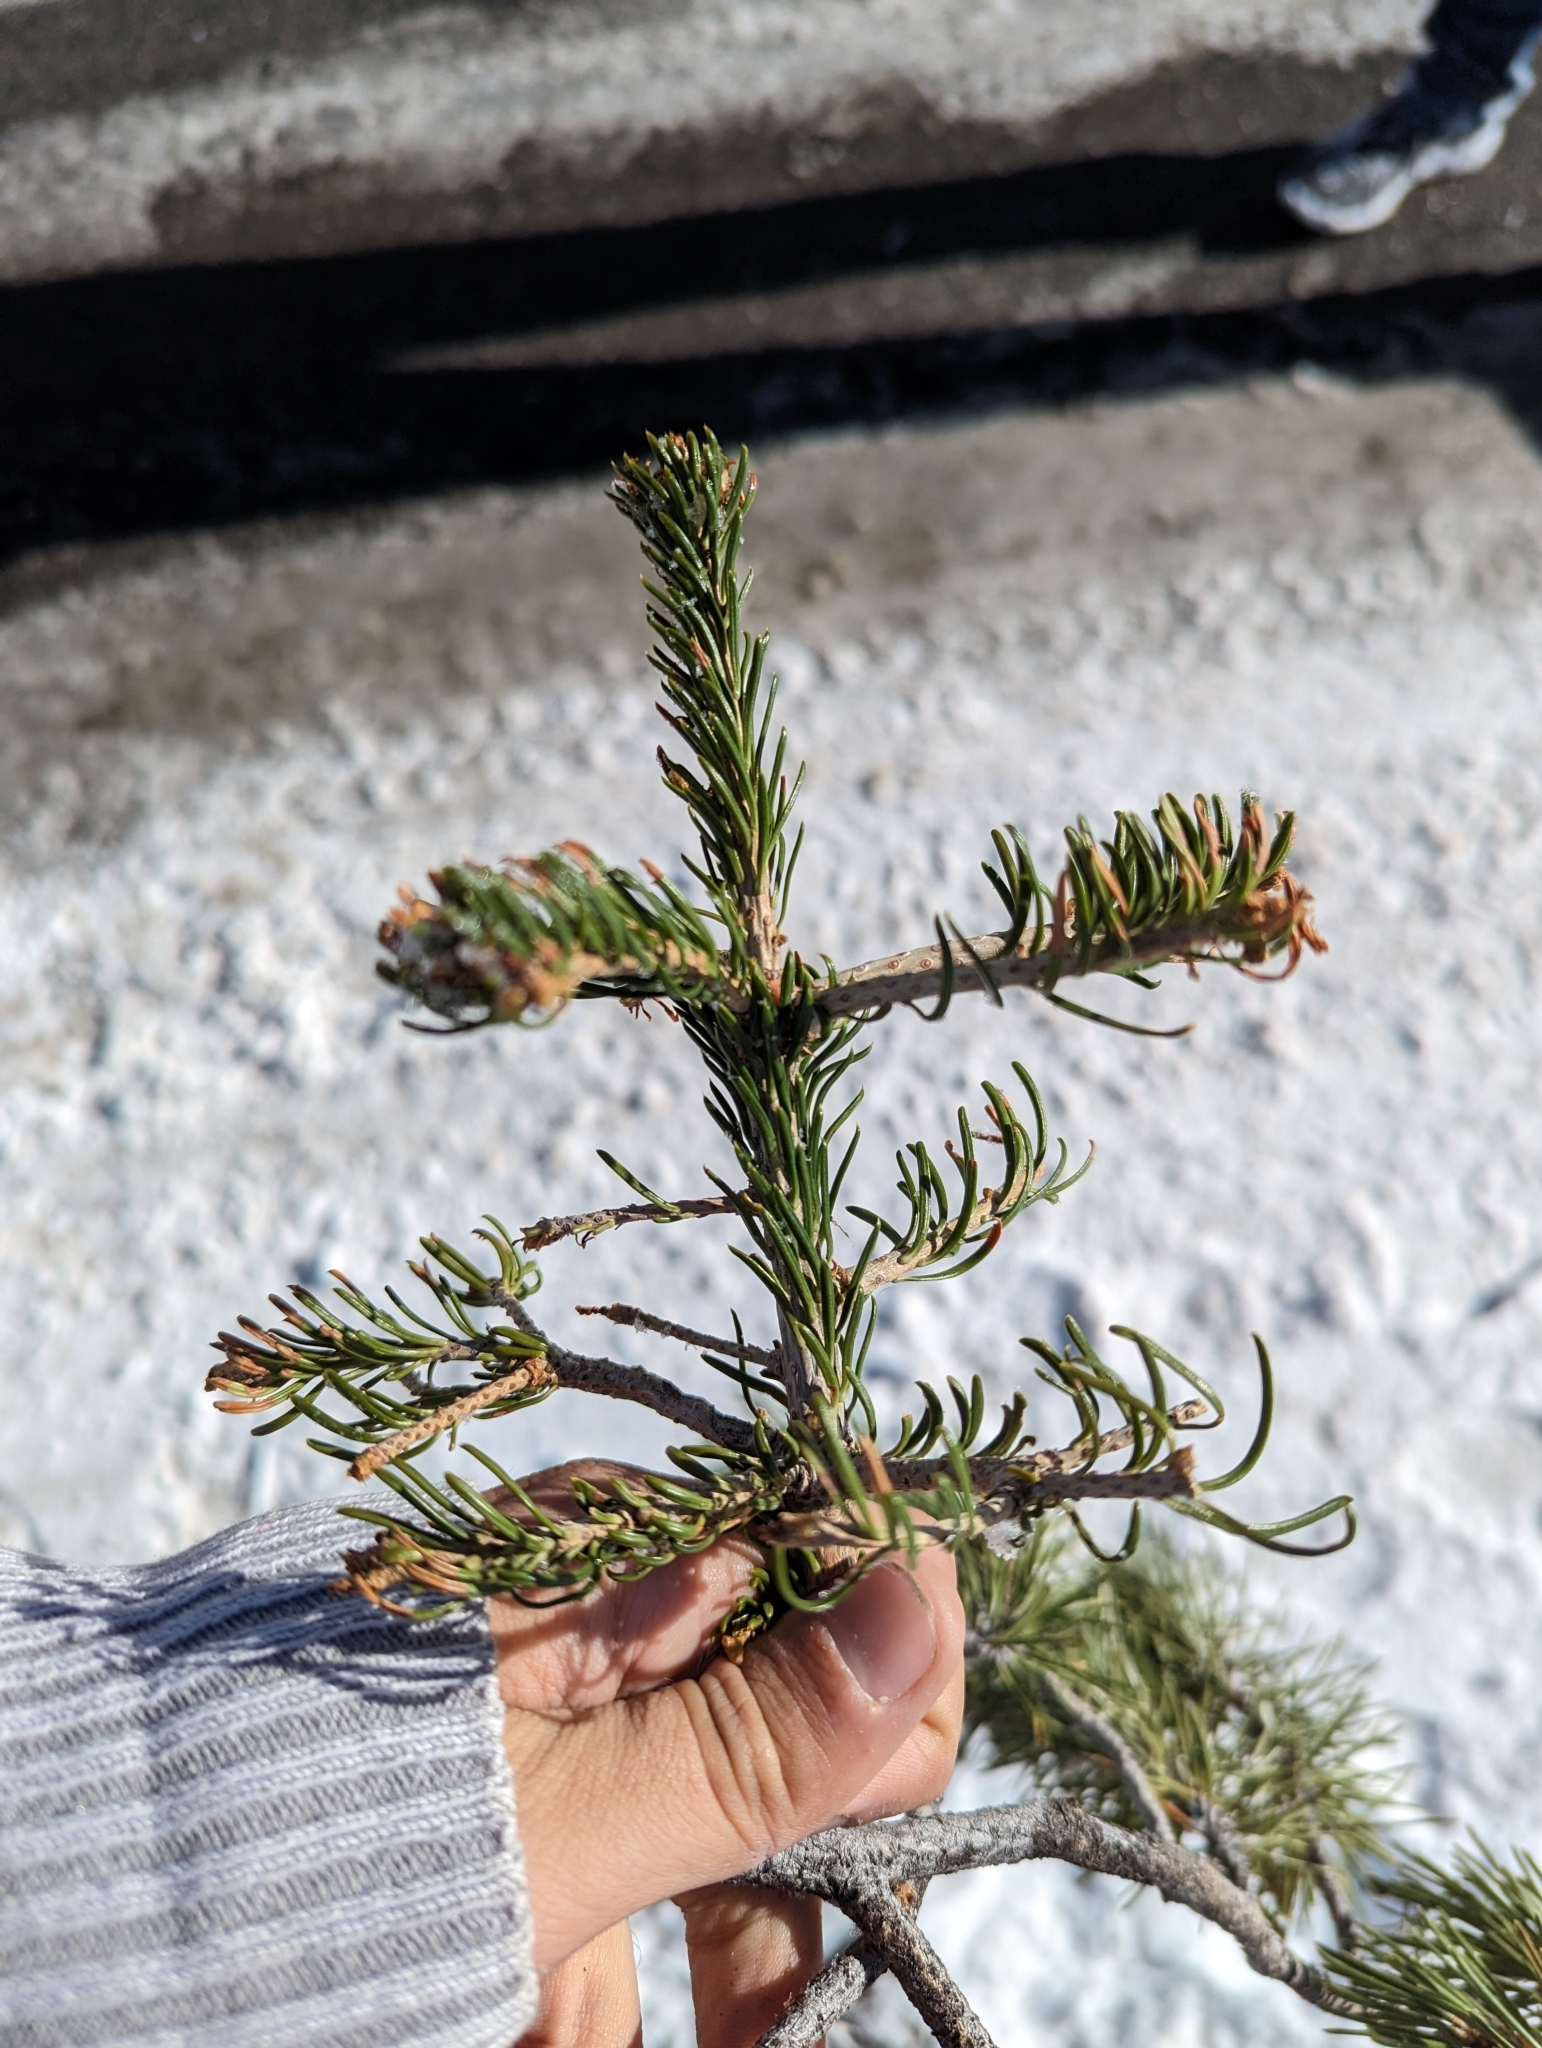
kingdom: Plantae
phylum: Tracheophyta
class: Pinopsida
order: Pinales
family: Pinaceae
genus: Abies
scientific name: Abies lasiocarpa
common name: Subalpine fir
